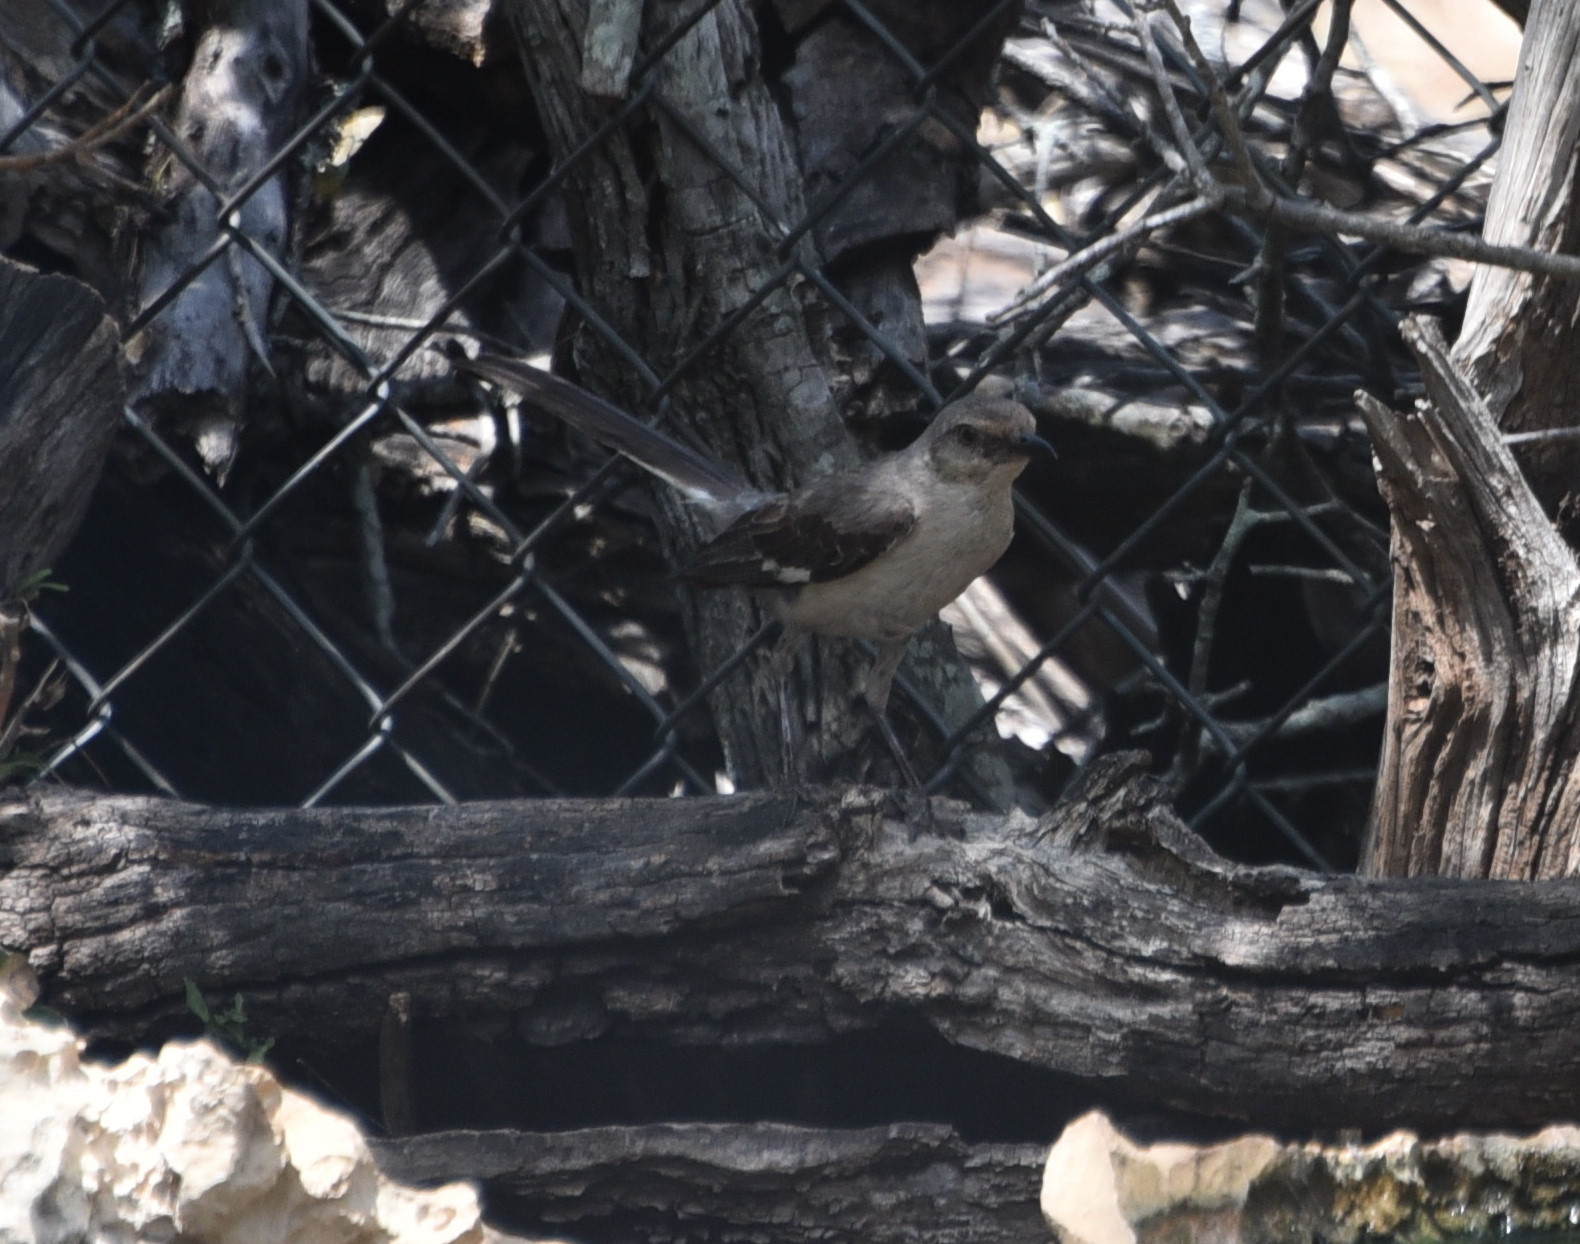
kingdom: Animalia
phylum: Chordata
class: Aves
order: Passeriformes
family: Mimidae
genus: Mimus
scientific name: Mimus polyglottos
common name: Northern mockingbird
